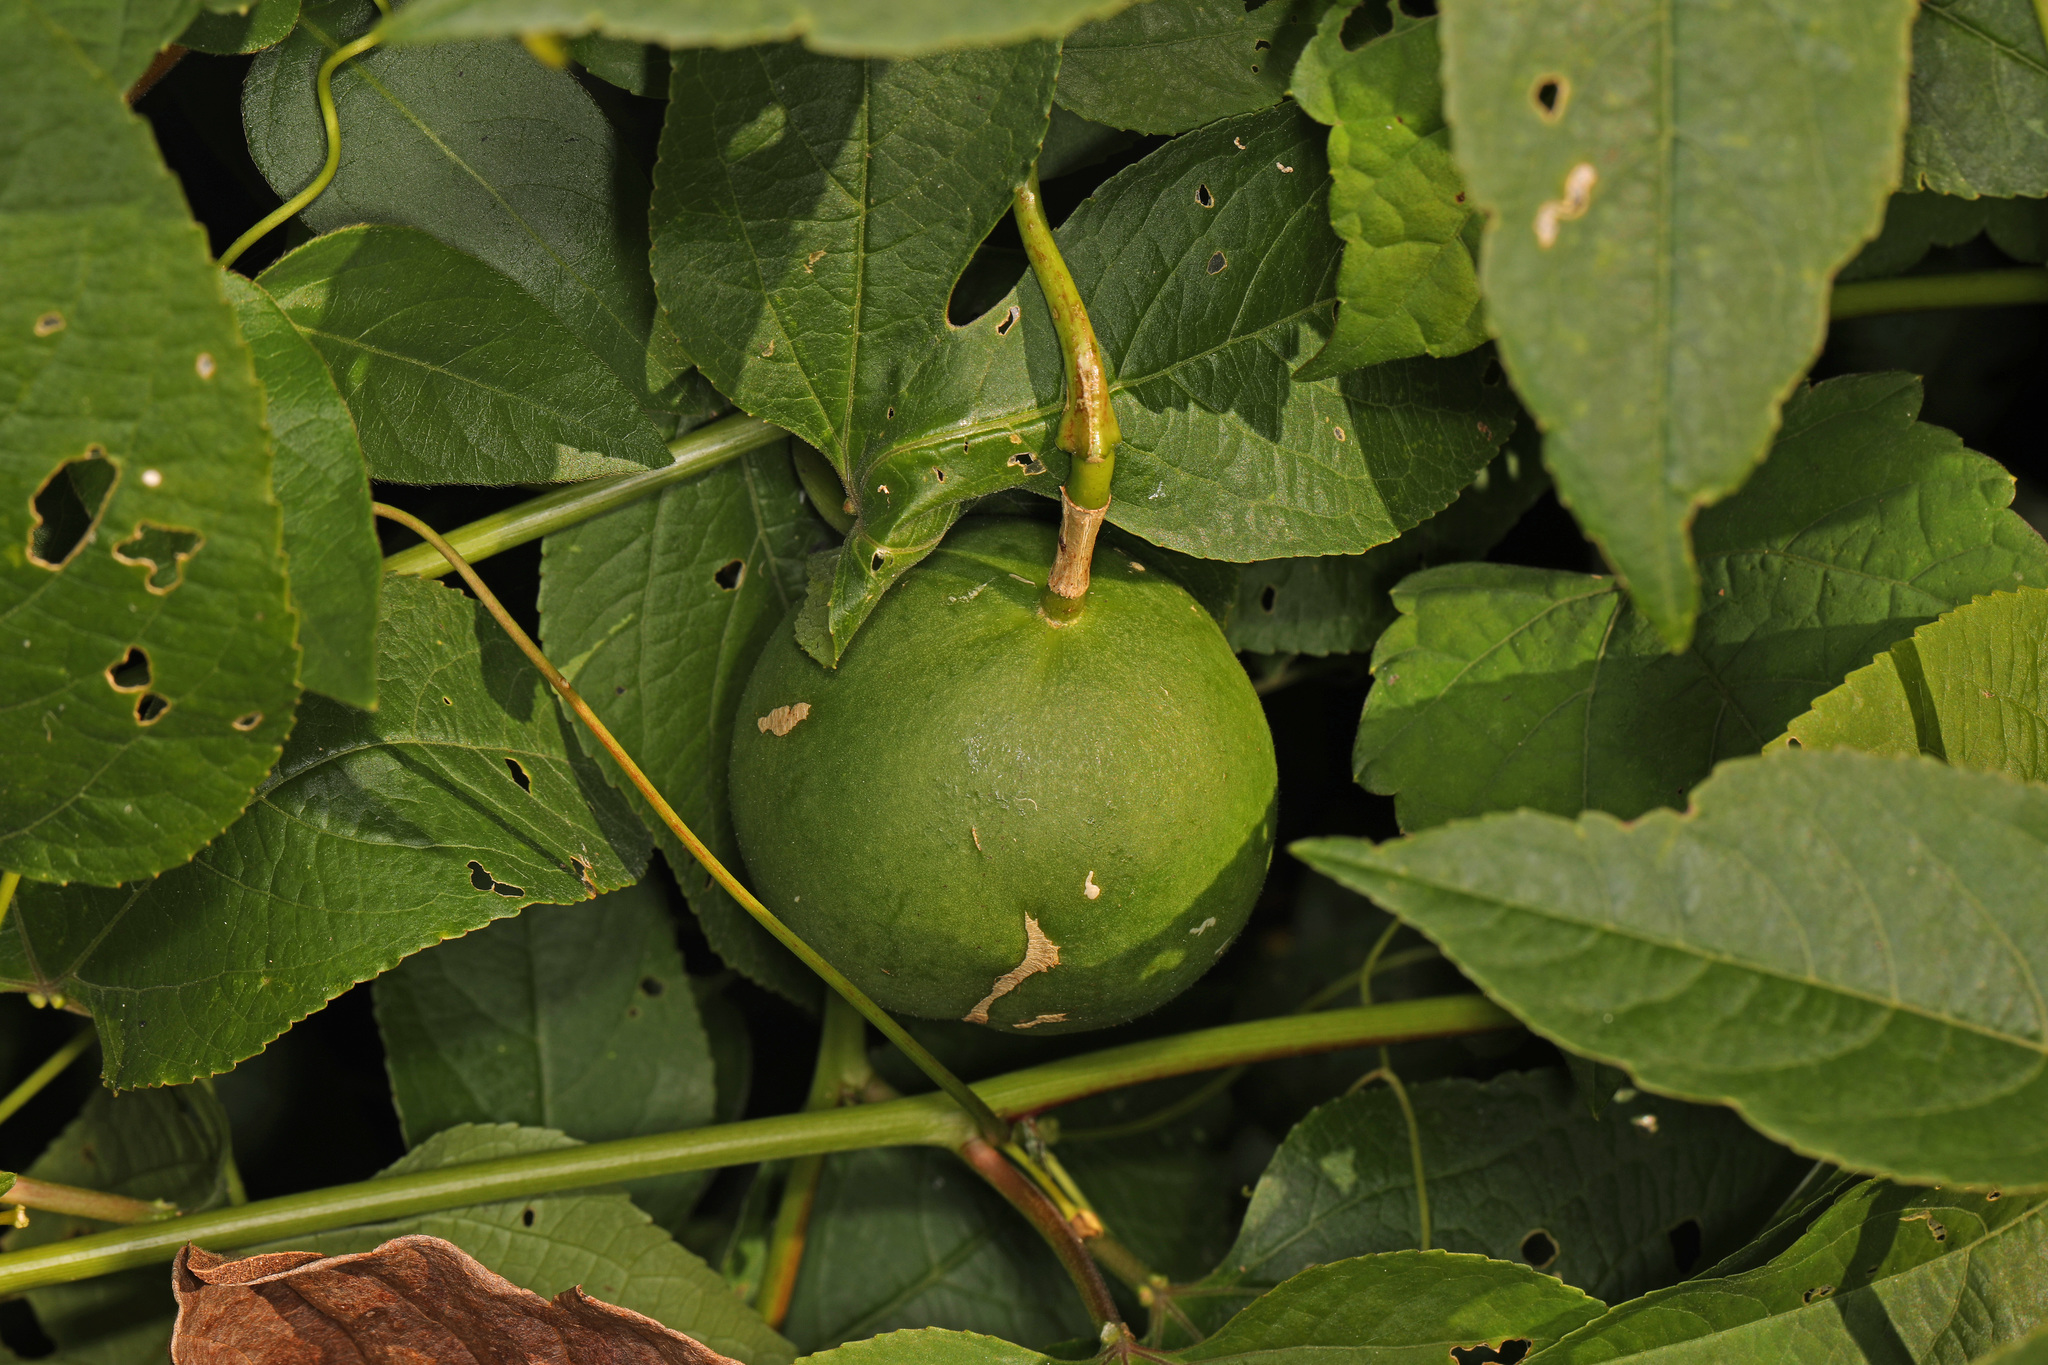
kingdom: Plantae
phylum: Tracheophyta
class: Magnoliopsida
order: Malpighiales
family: Passifloraceae
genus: Passiflora
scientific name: Passiflora incarnata
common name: Apricot-vine
